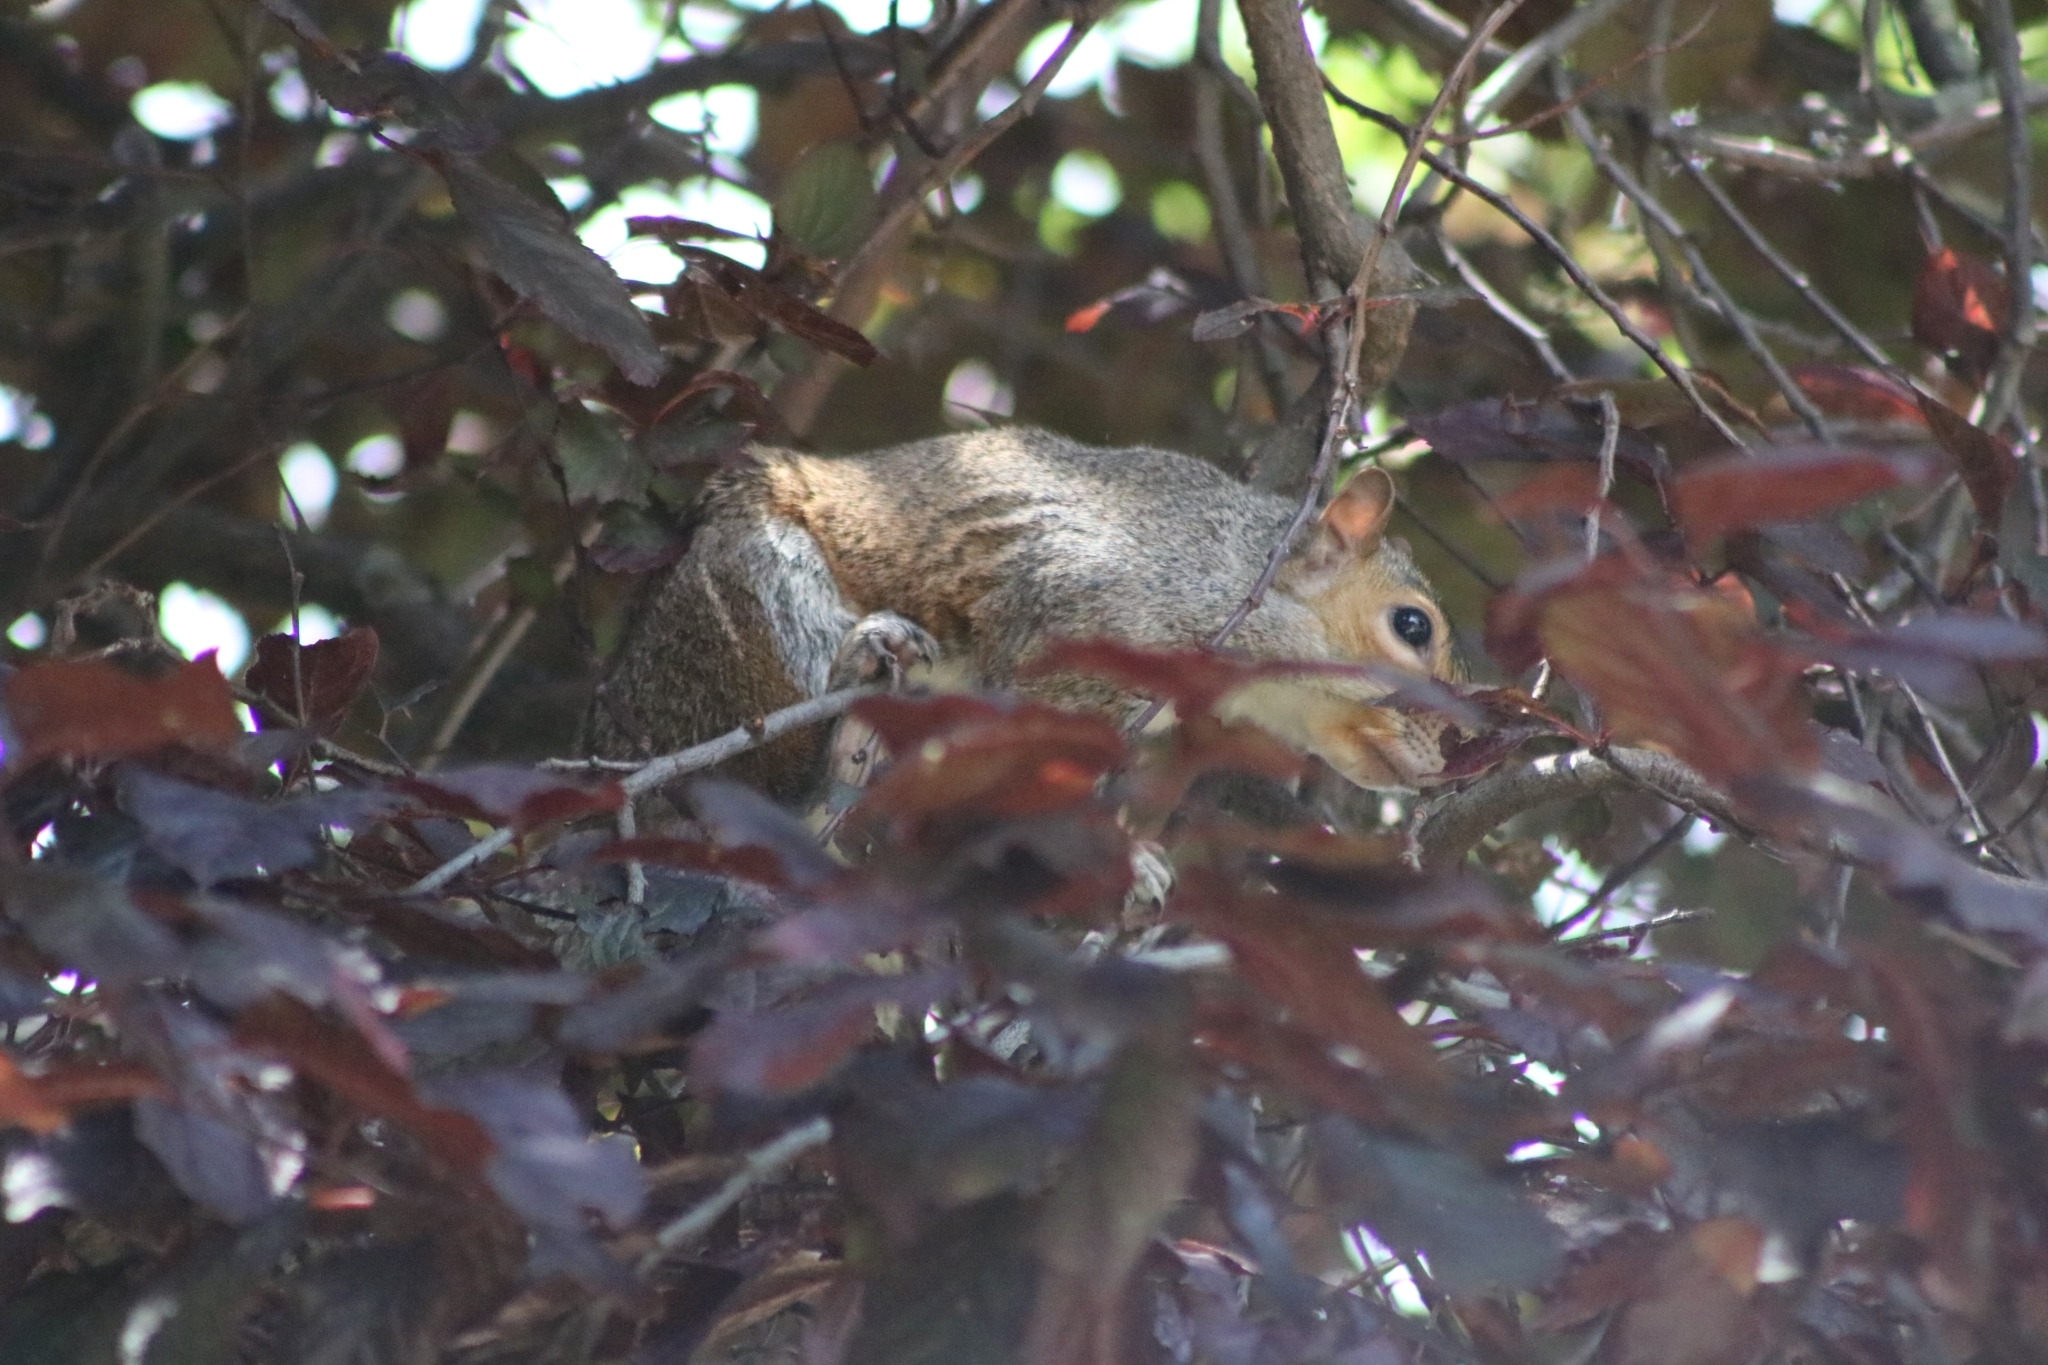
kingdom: Animalia
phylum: Chordata
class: Mammalia
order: Rodentia
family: Sciuridae
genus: Sciurus
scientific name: Sciurus carolinensis
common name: Eastern gray squirrel
